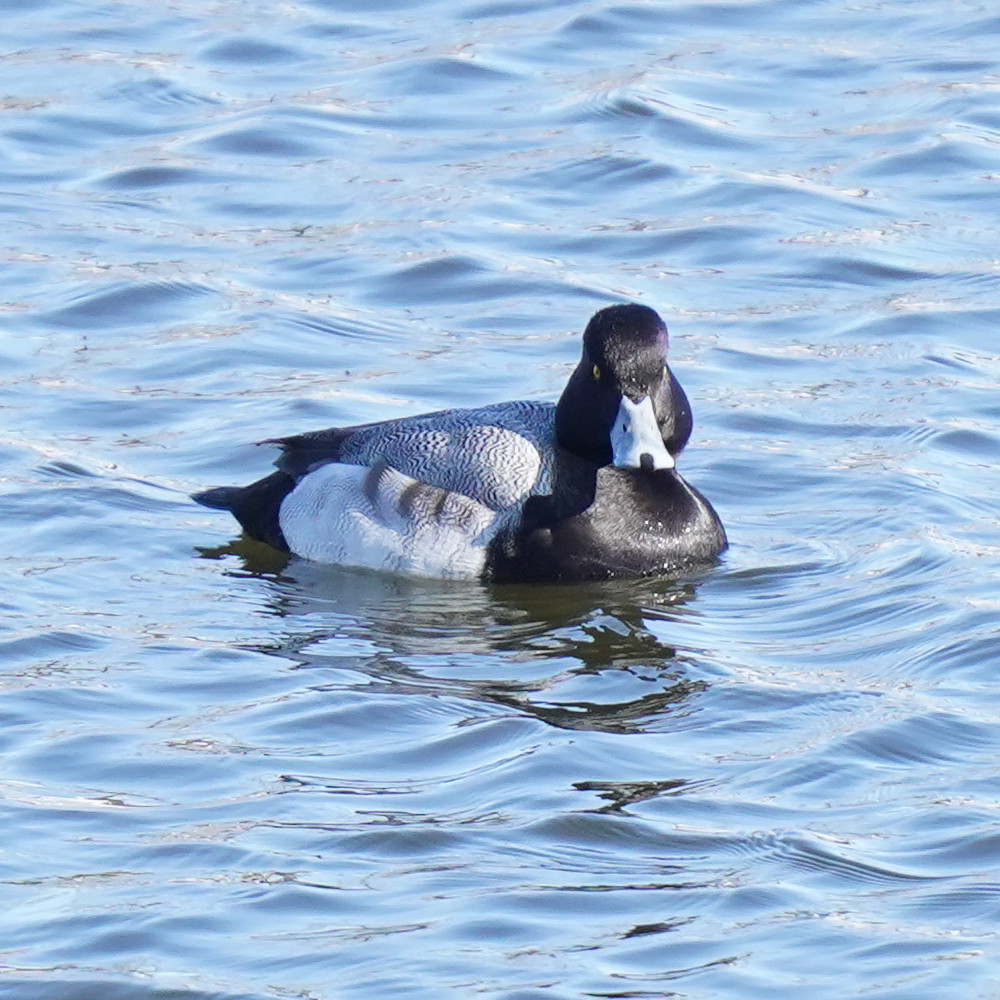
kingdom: Animalia
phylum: Chordata
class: Aves
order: Anseriformes
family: Anatidae
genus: Aythya
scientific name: Aythya affinis
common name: Lesser scaup
